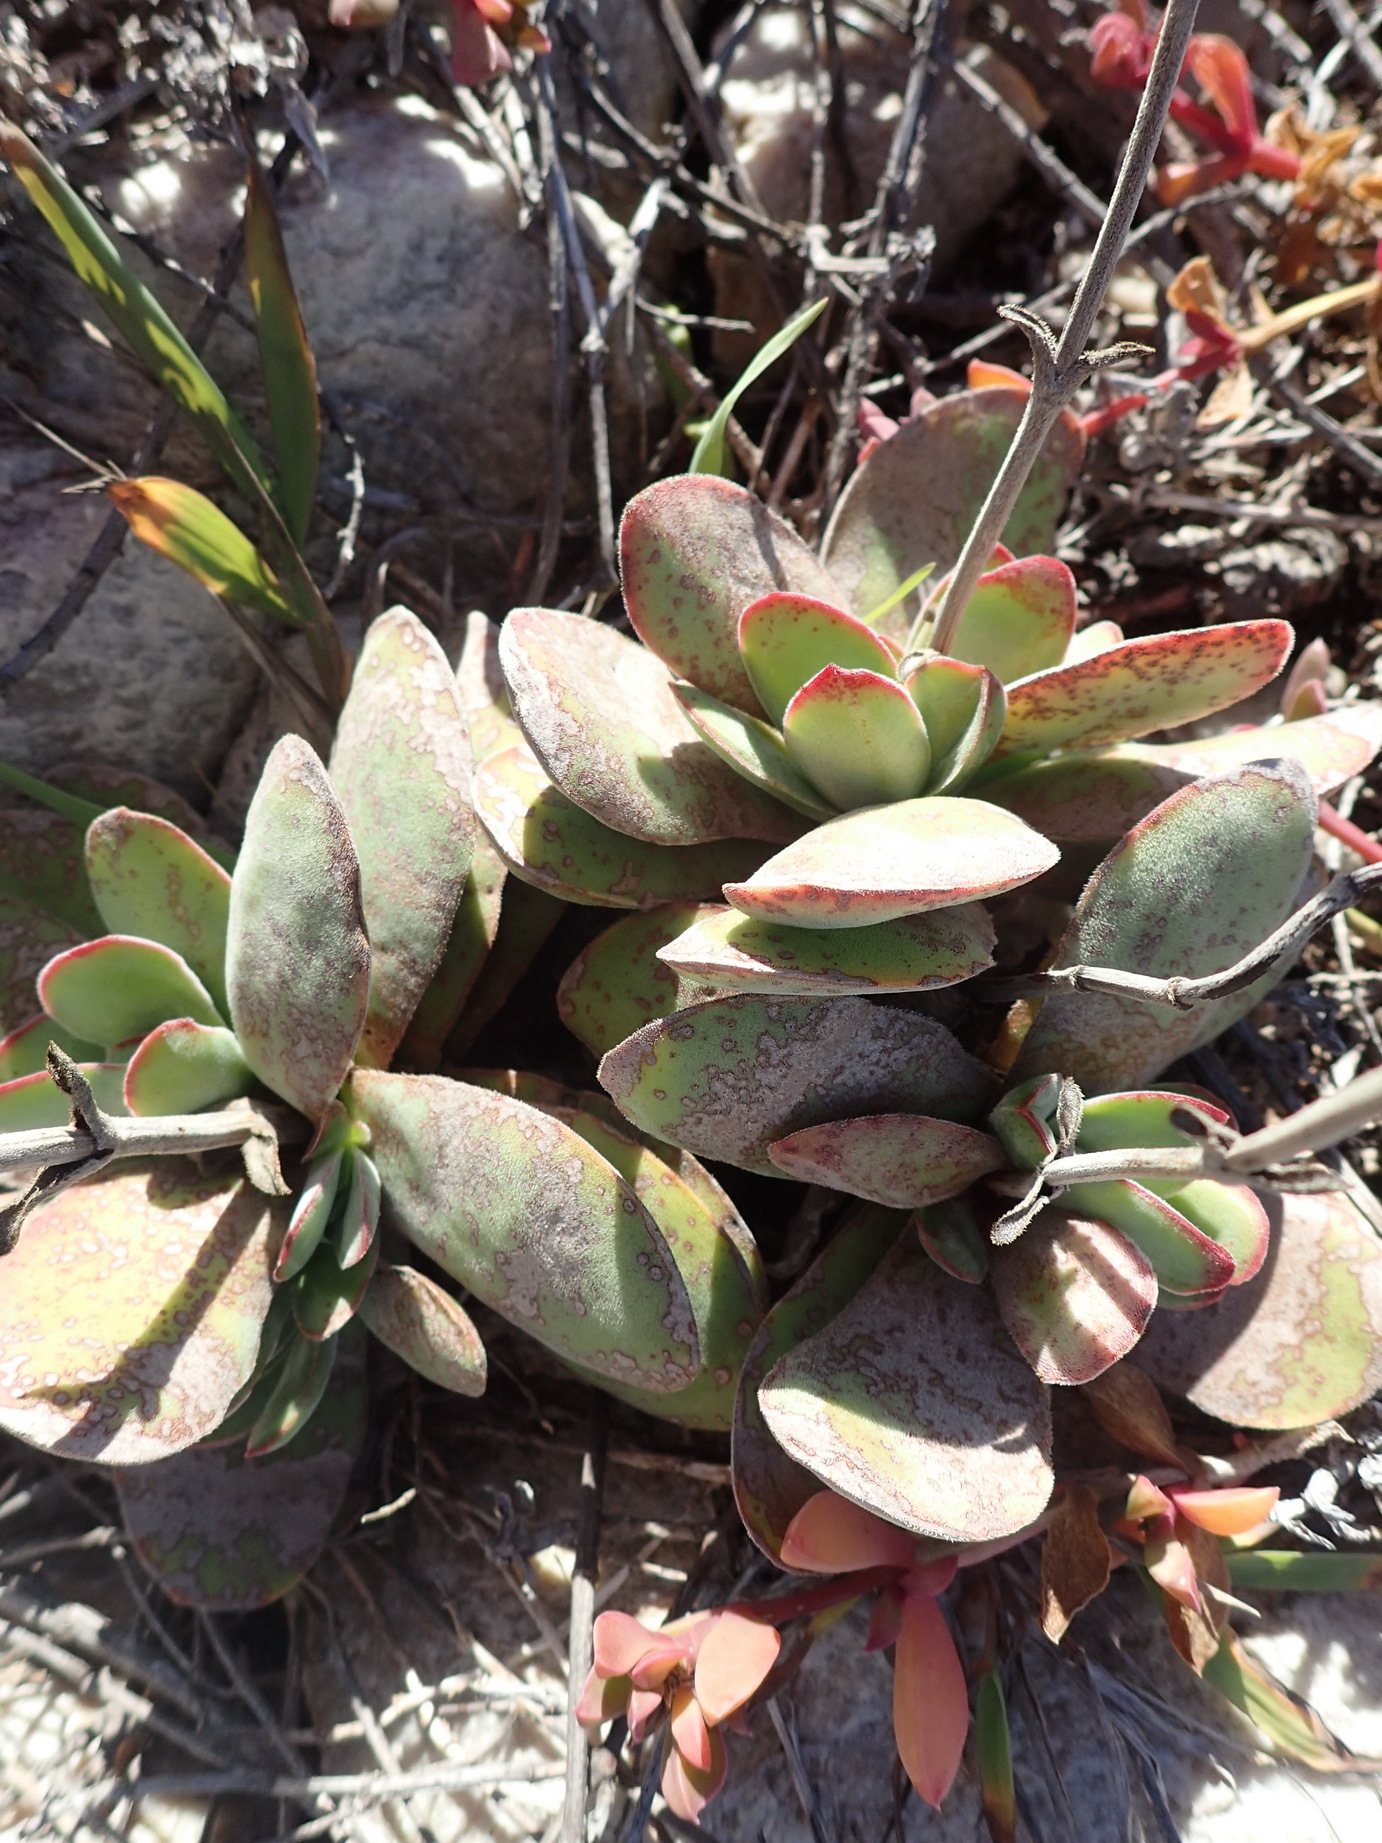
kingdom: Plantae
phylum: Tracheophyta
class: Magnoliopsida
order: Saxifragales
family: Crassulaceae
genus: Crassula
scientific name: Crassula nudicaulis
